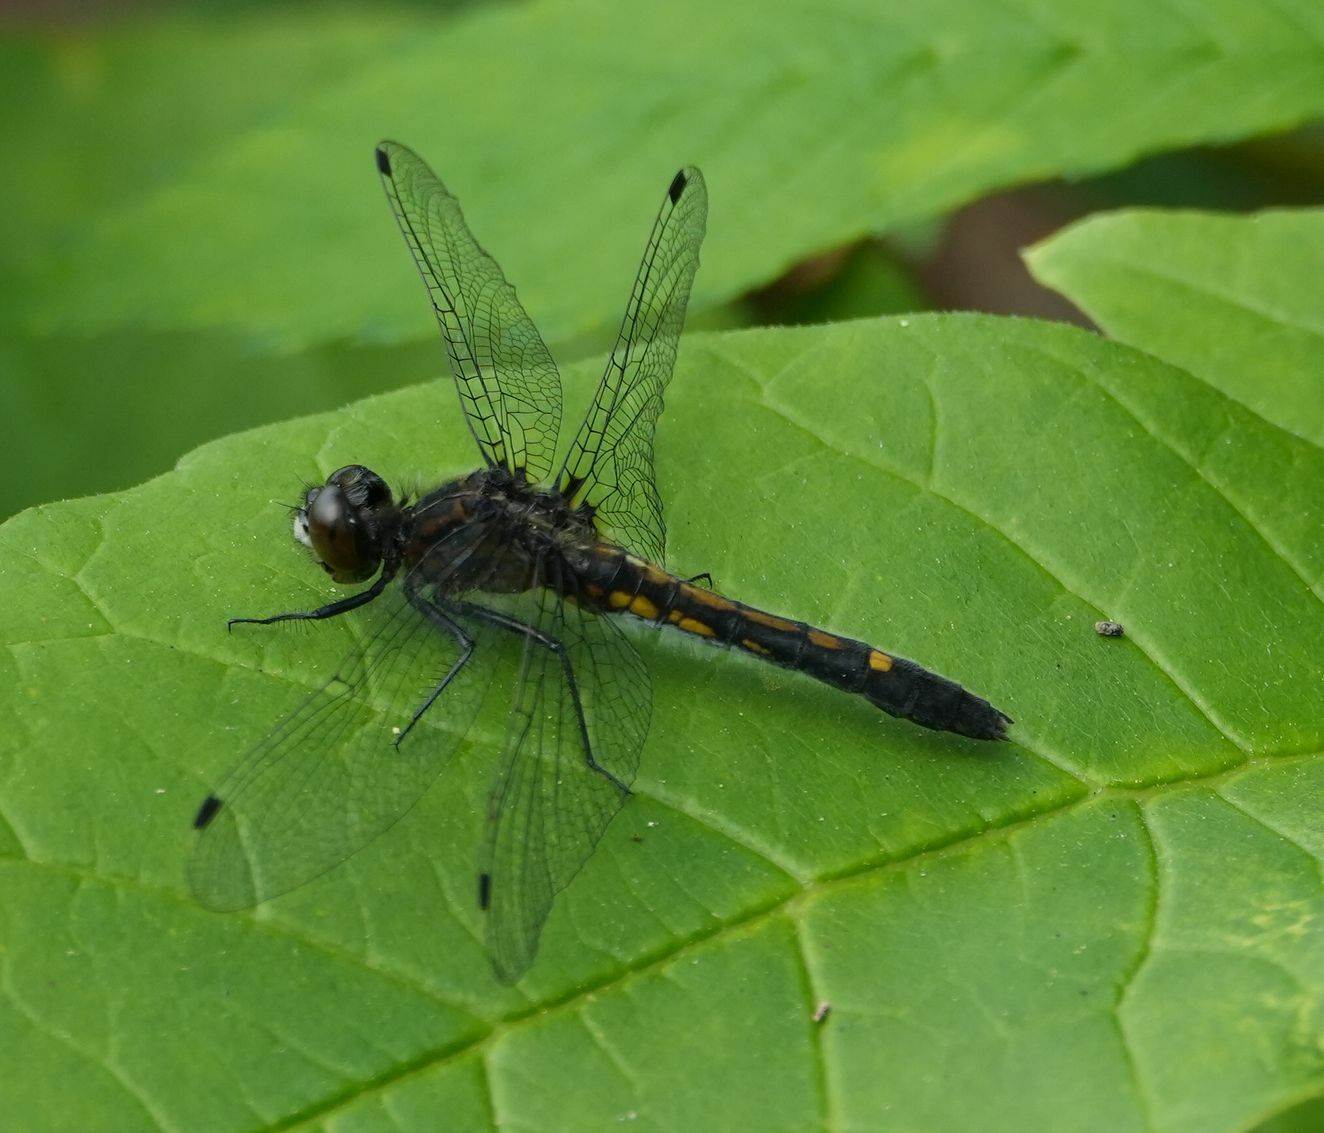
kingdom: Animalia
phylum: Arthropoda
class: Insecta
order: Odonata
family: Libellulidae
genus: Leucorrhinia
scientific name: Leucorrhinia intacta
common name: Dot-tailed whiteface
